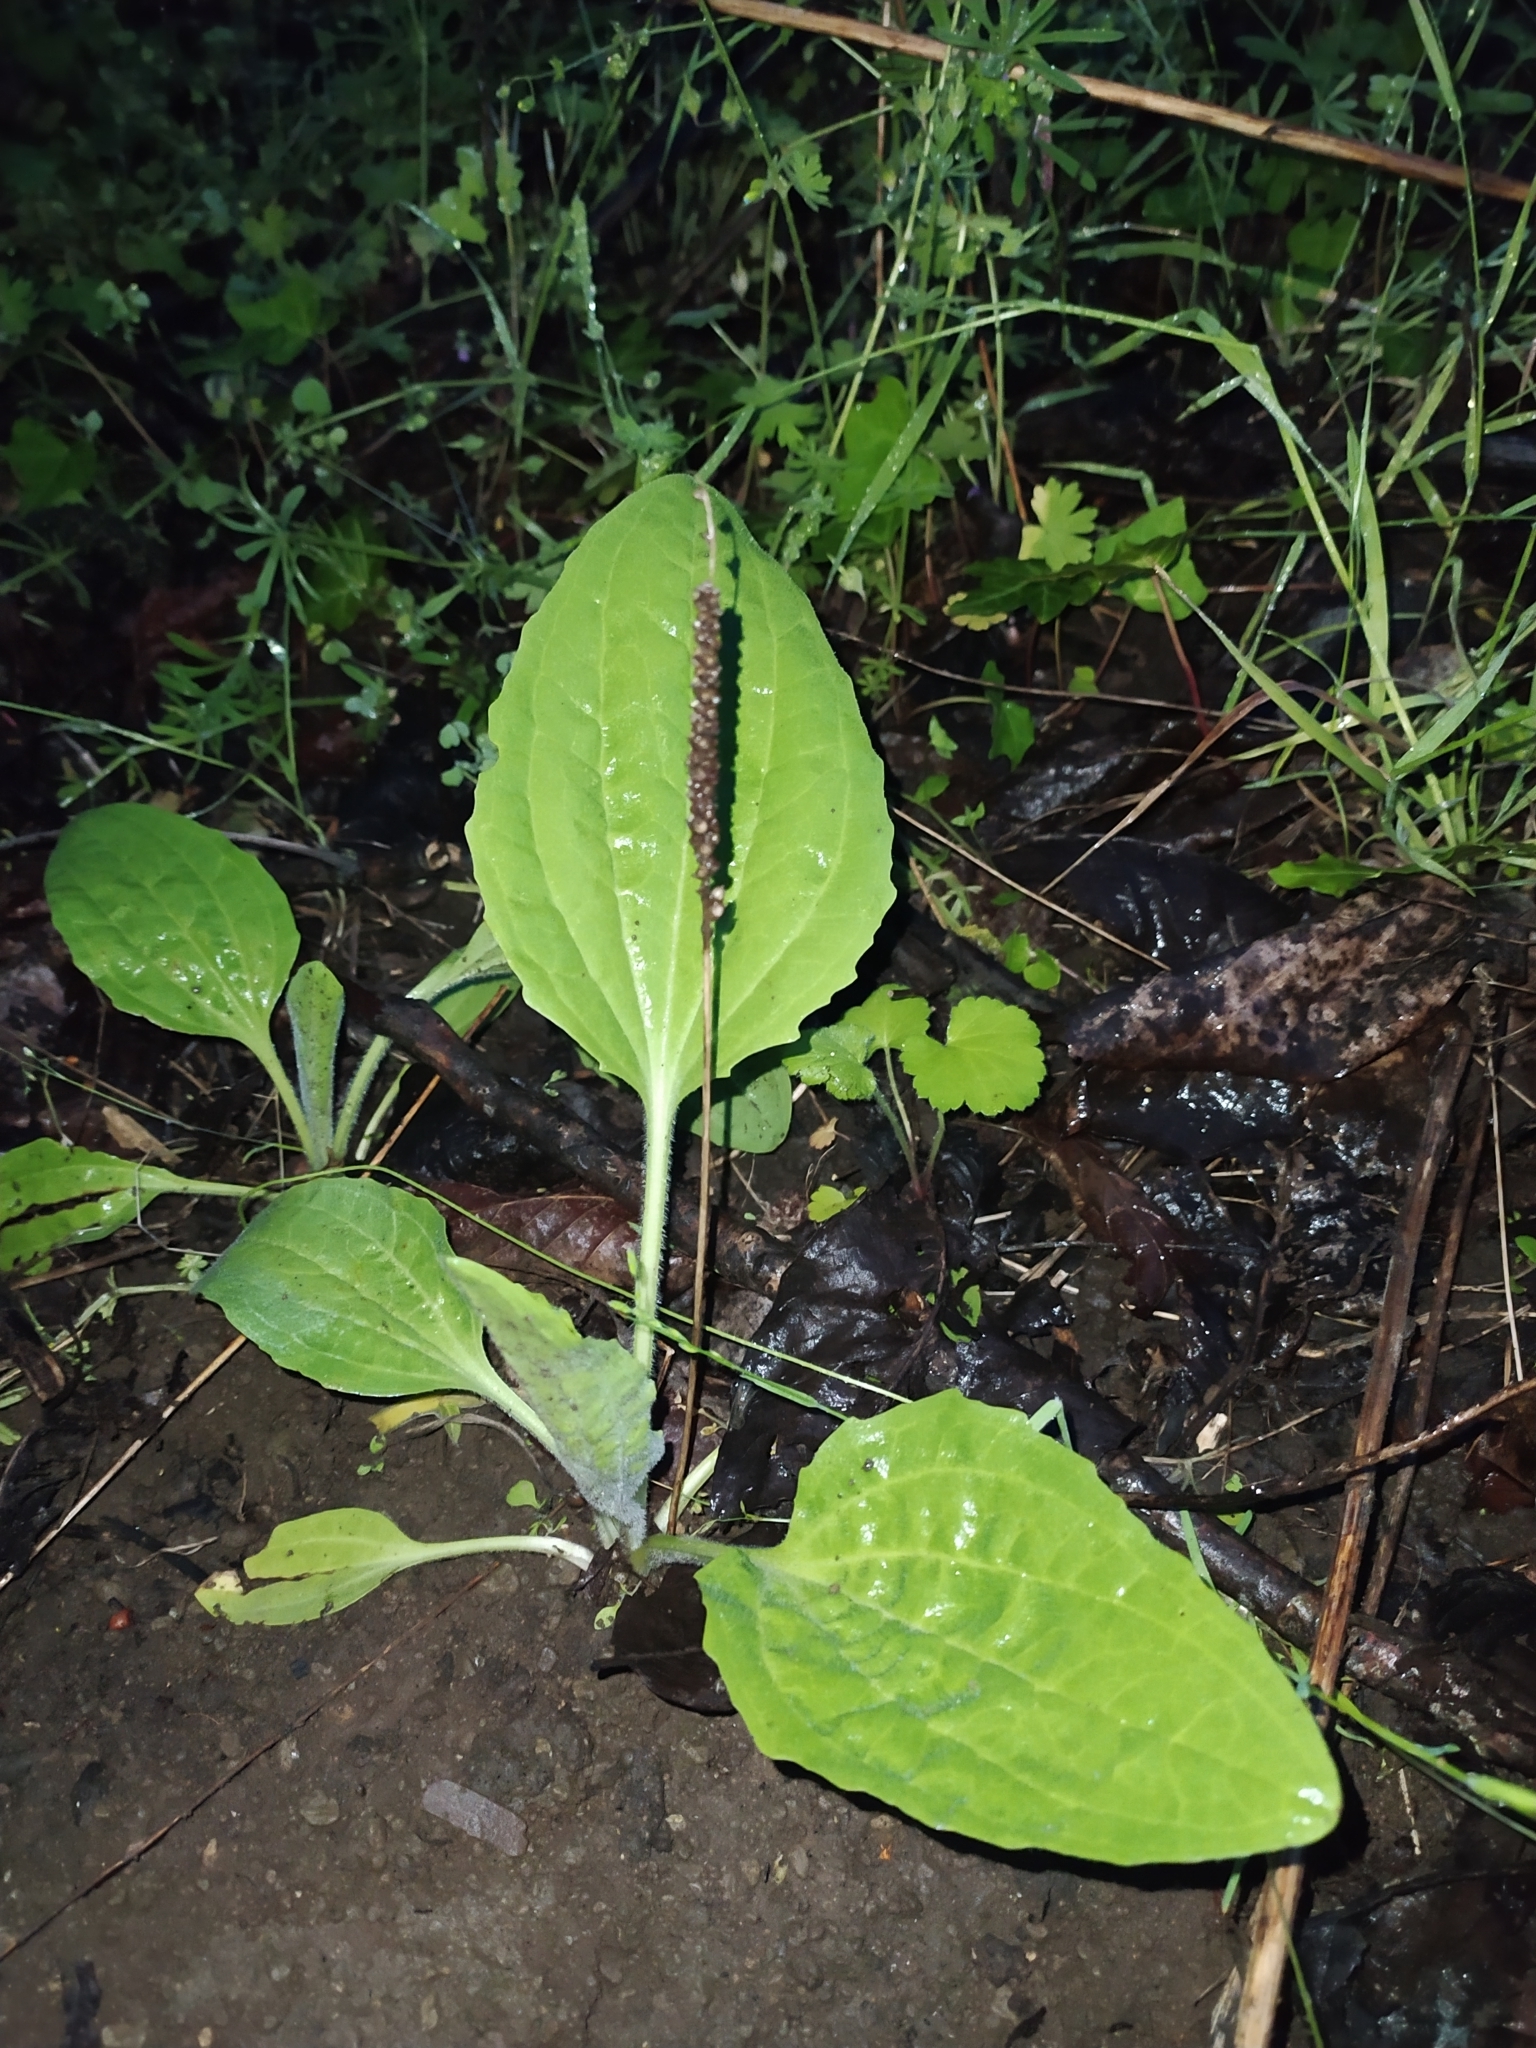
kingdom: Plantae
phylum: Tracheophyta
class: Magnoliopsida
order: Lamiales
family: Plantaginaceae
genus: Plantago
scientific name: Plantago major
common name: Common plantain
